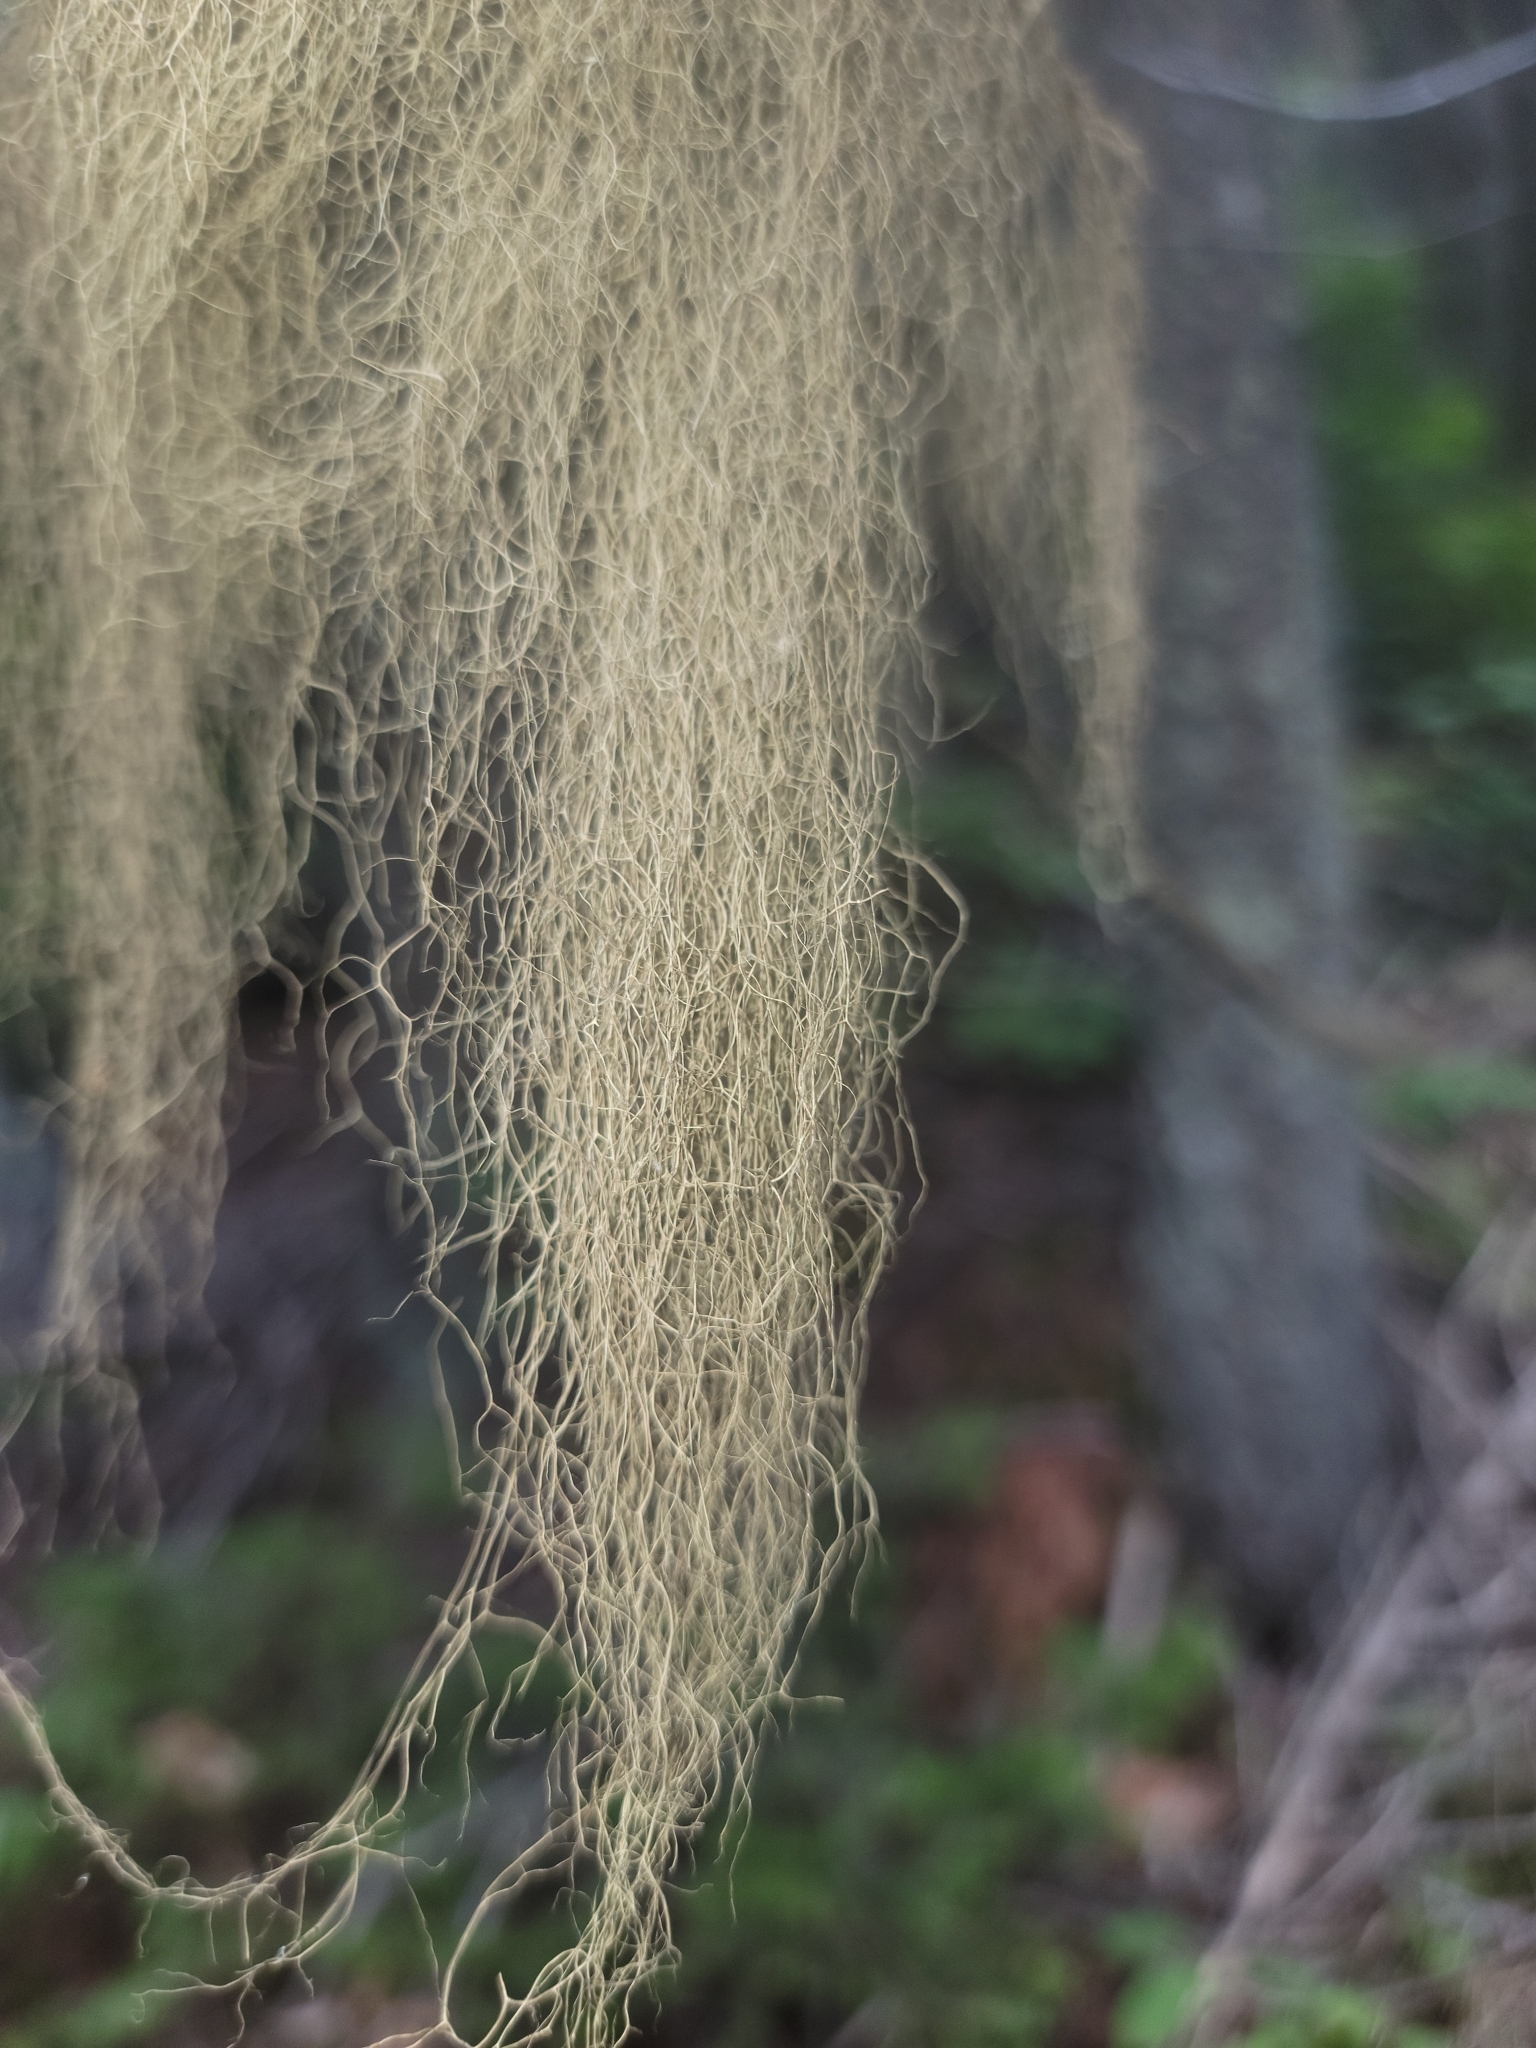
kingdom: Fungi
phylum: Ascomycota
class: Lecanoromycetes
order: Lecanorales
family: Parmeliaceae
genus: Alectoria
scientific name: Alectoria sarmentosa
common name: Witch's hair
